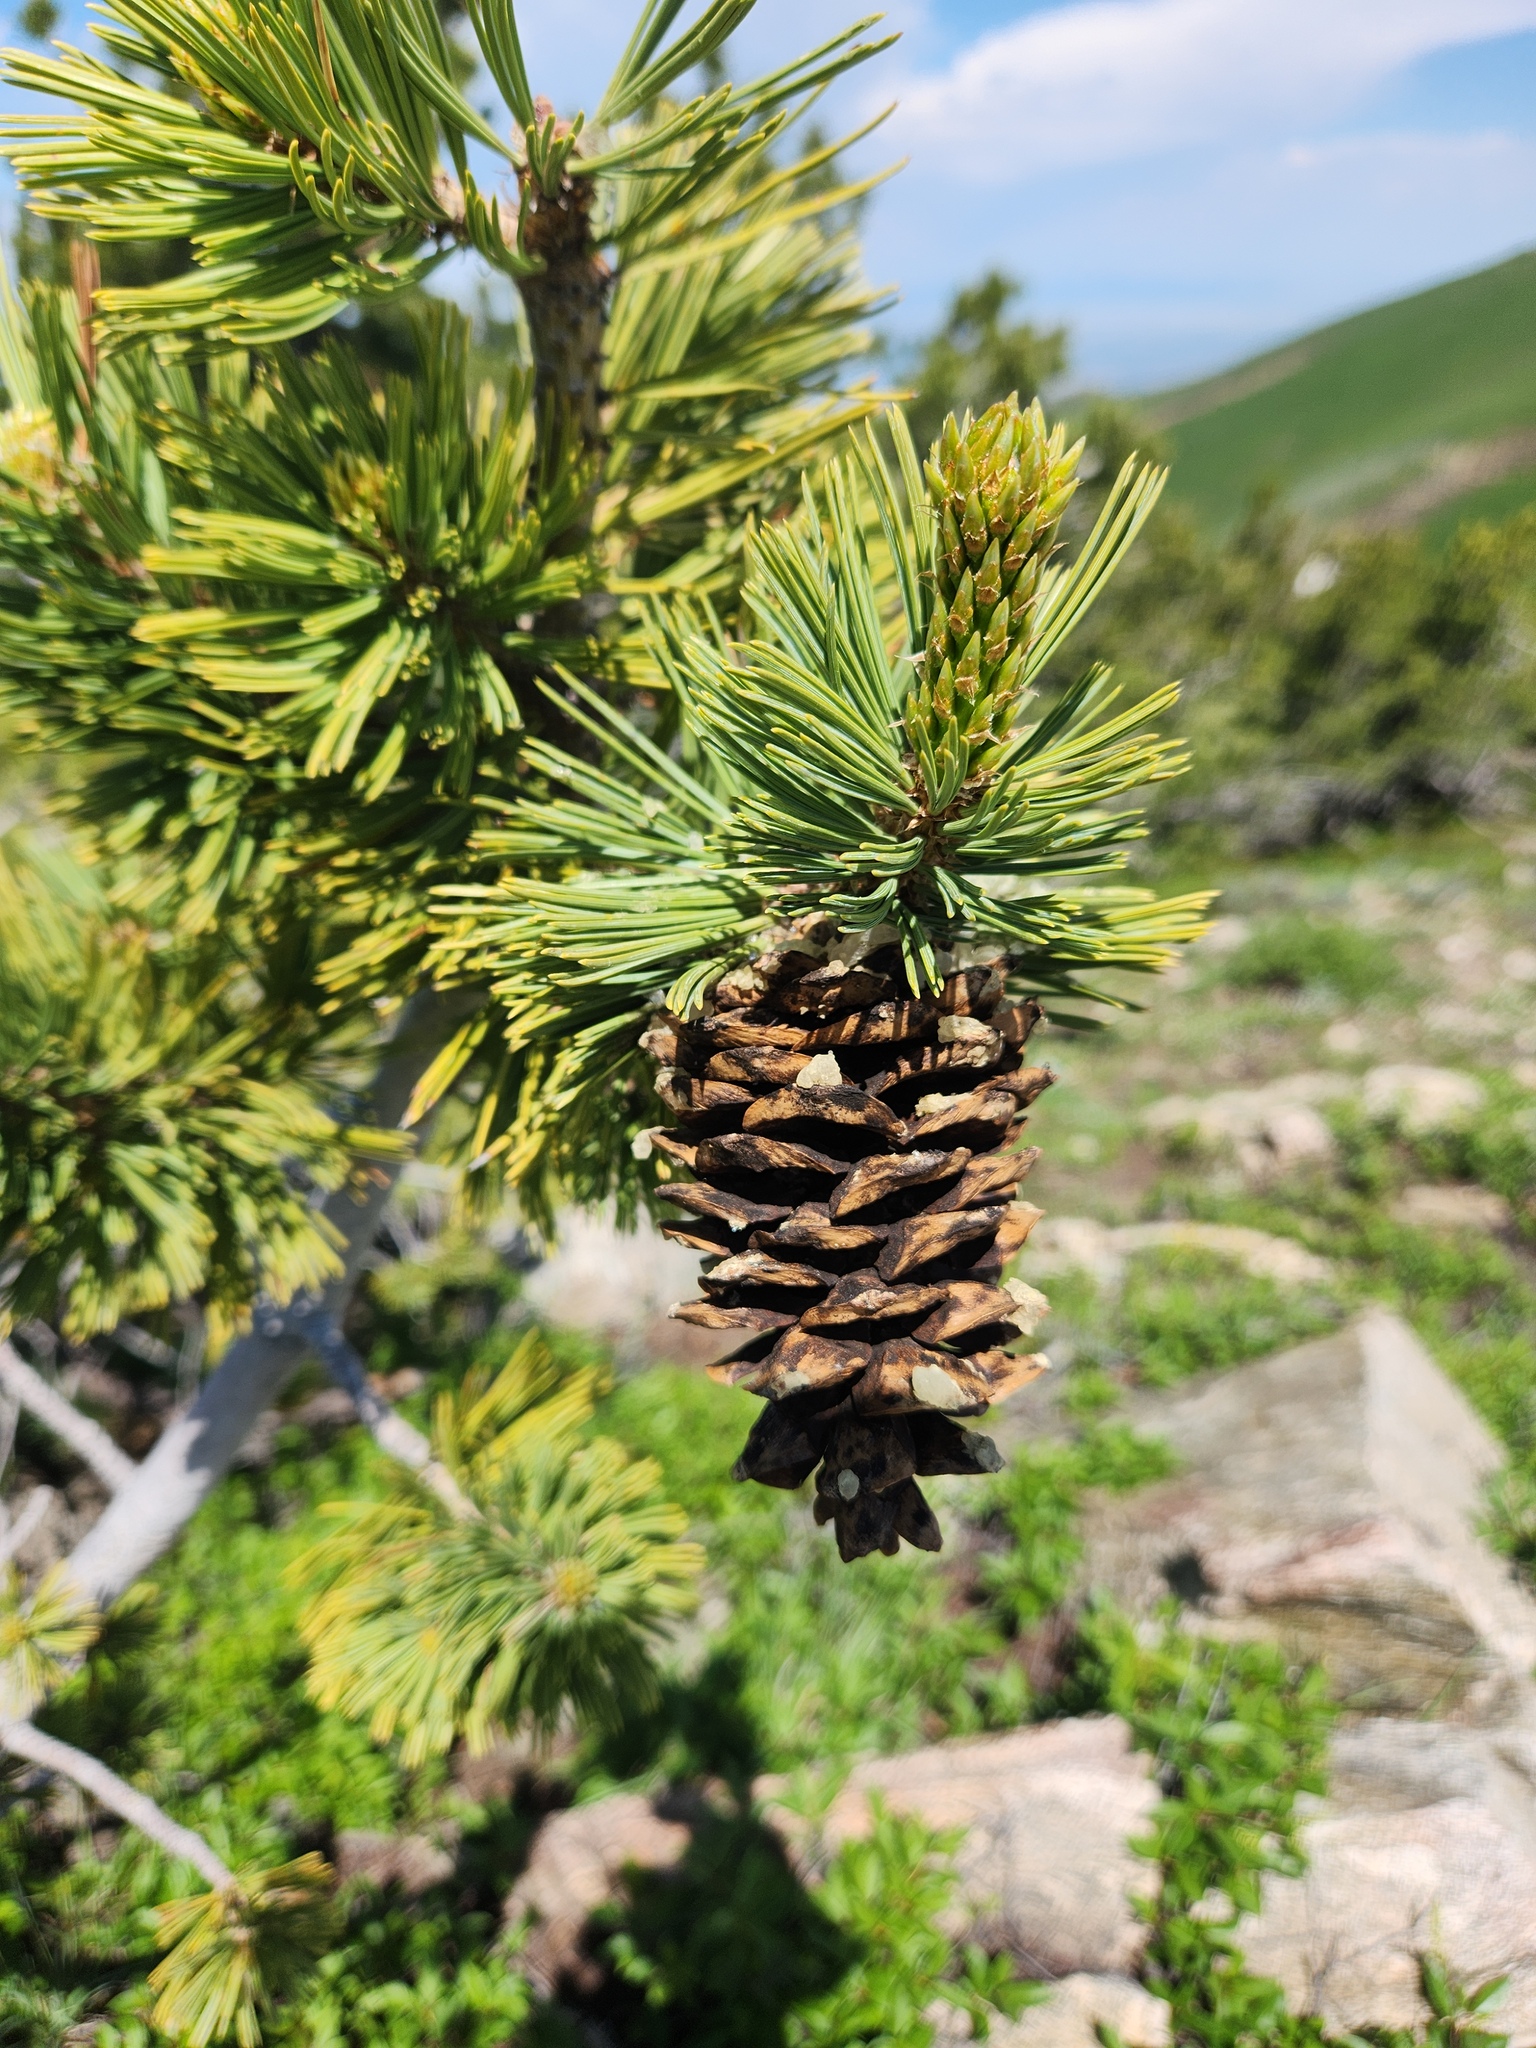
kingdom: Plantae
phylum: Tracheophyta
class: Pinopsida
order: Pinales
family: Pinaceae
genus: Pinus
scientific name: Pinus flexilis
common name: Limber pine
